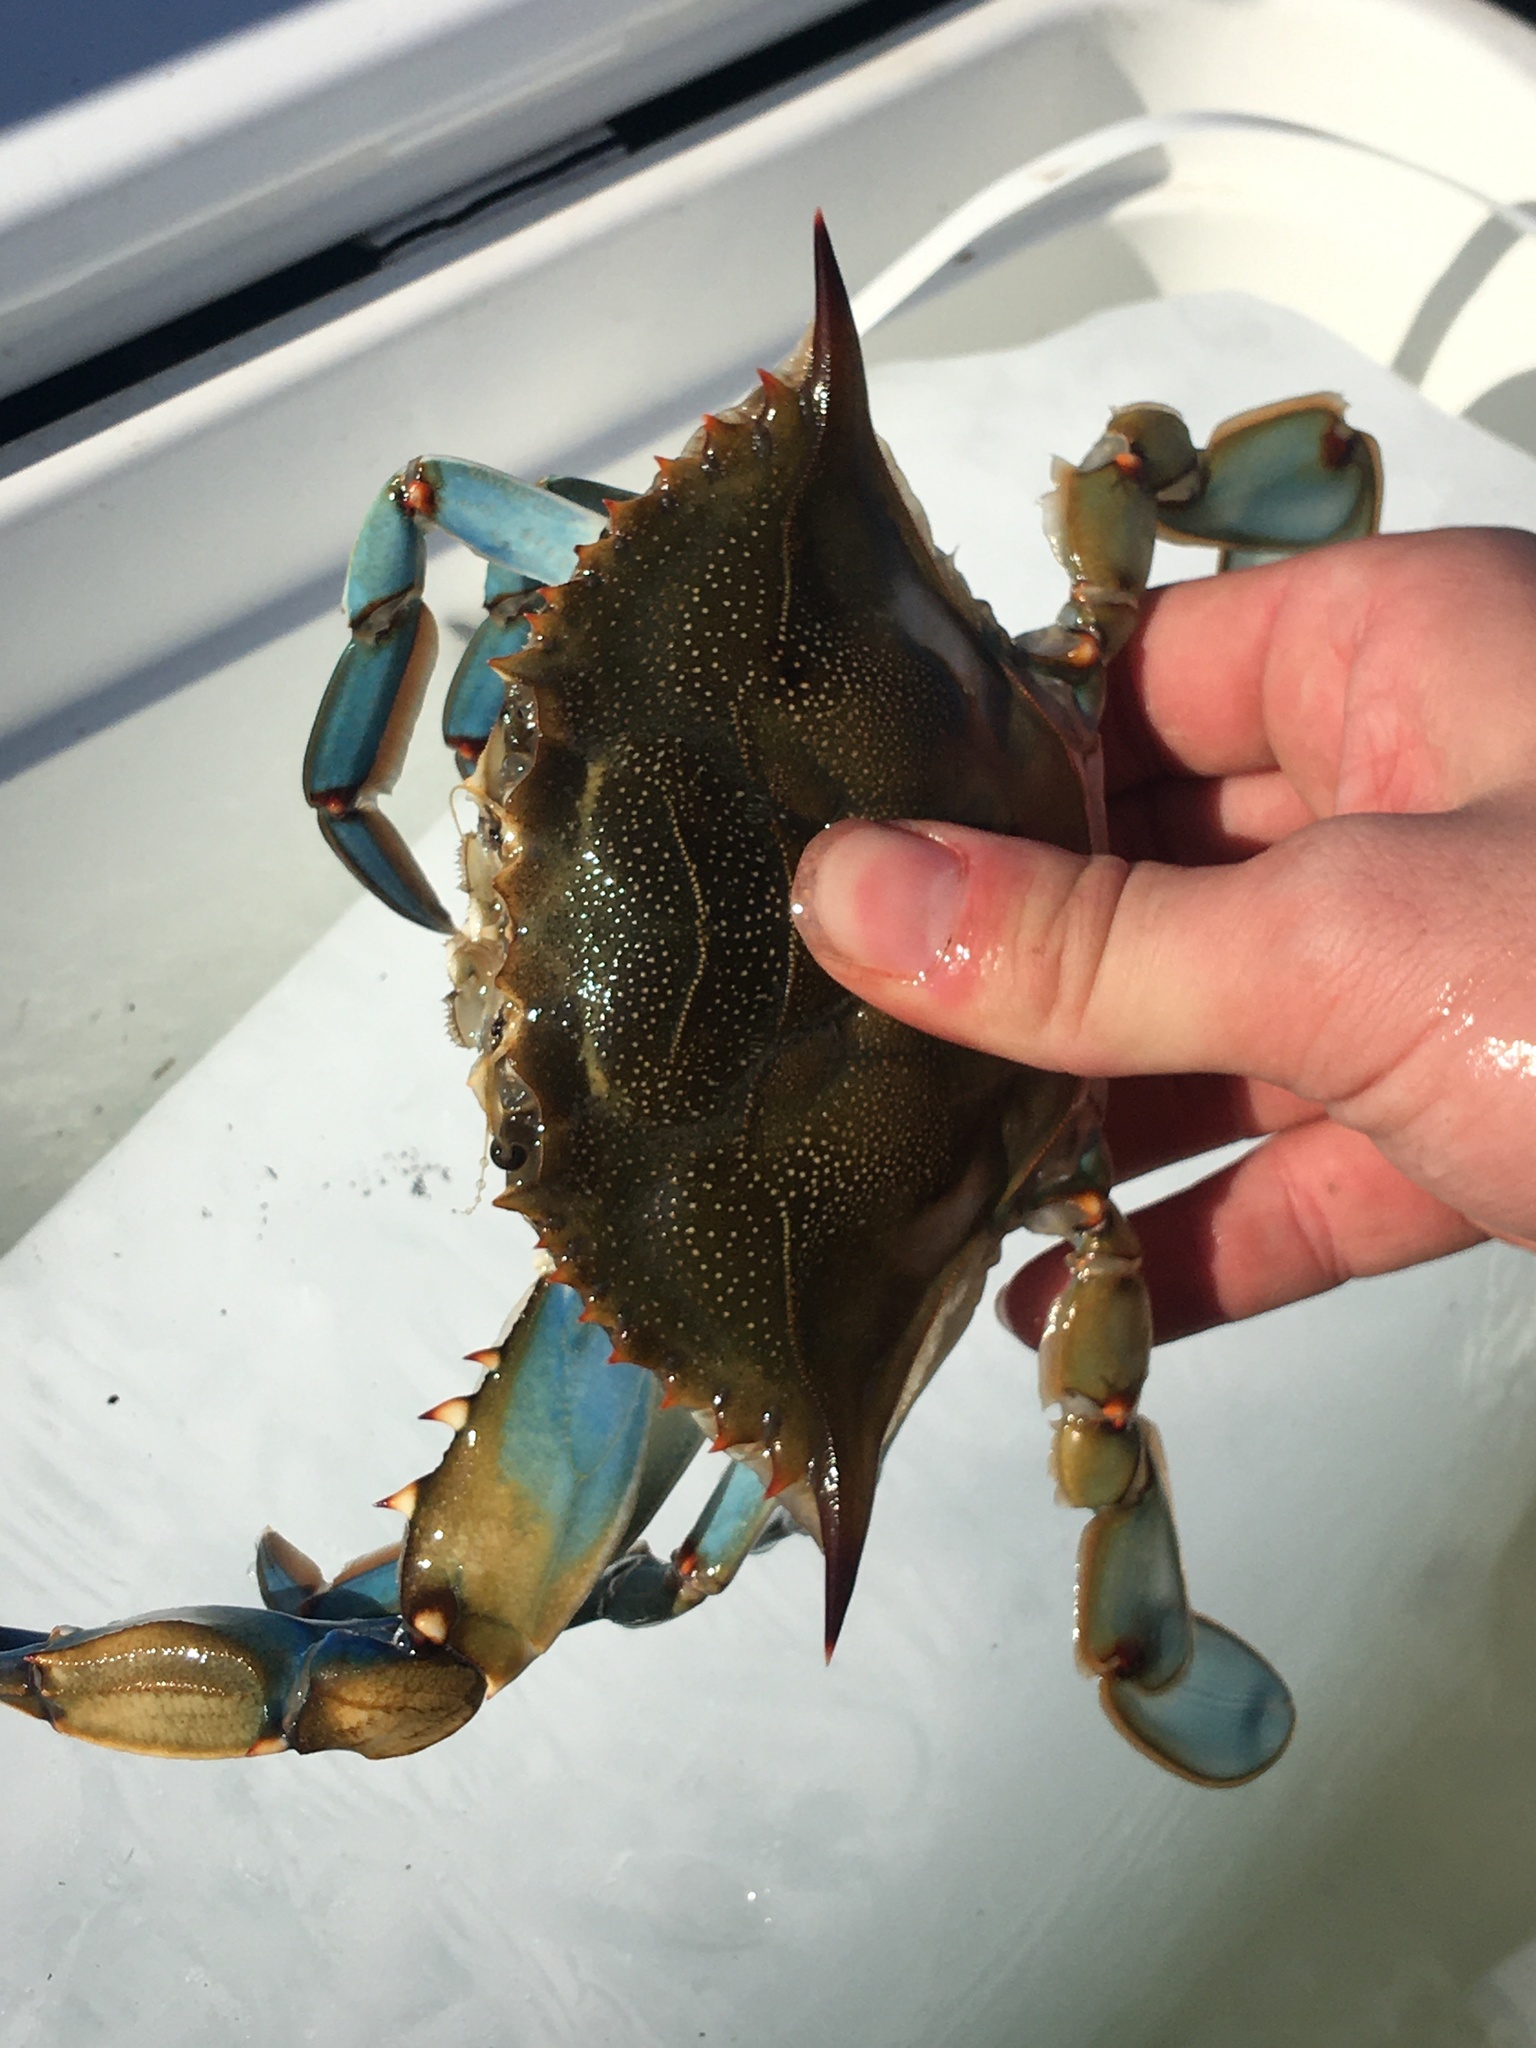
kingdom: Animalia
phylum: Arthropoda
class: Malacostraca
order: Decapoda
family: Portunidae
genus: Callinectes
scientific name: Callinectes sapidus
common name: Blue crab
